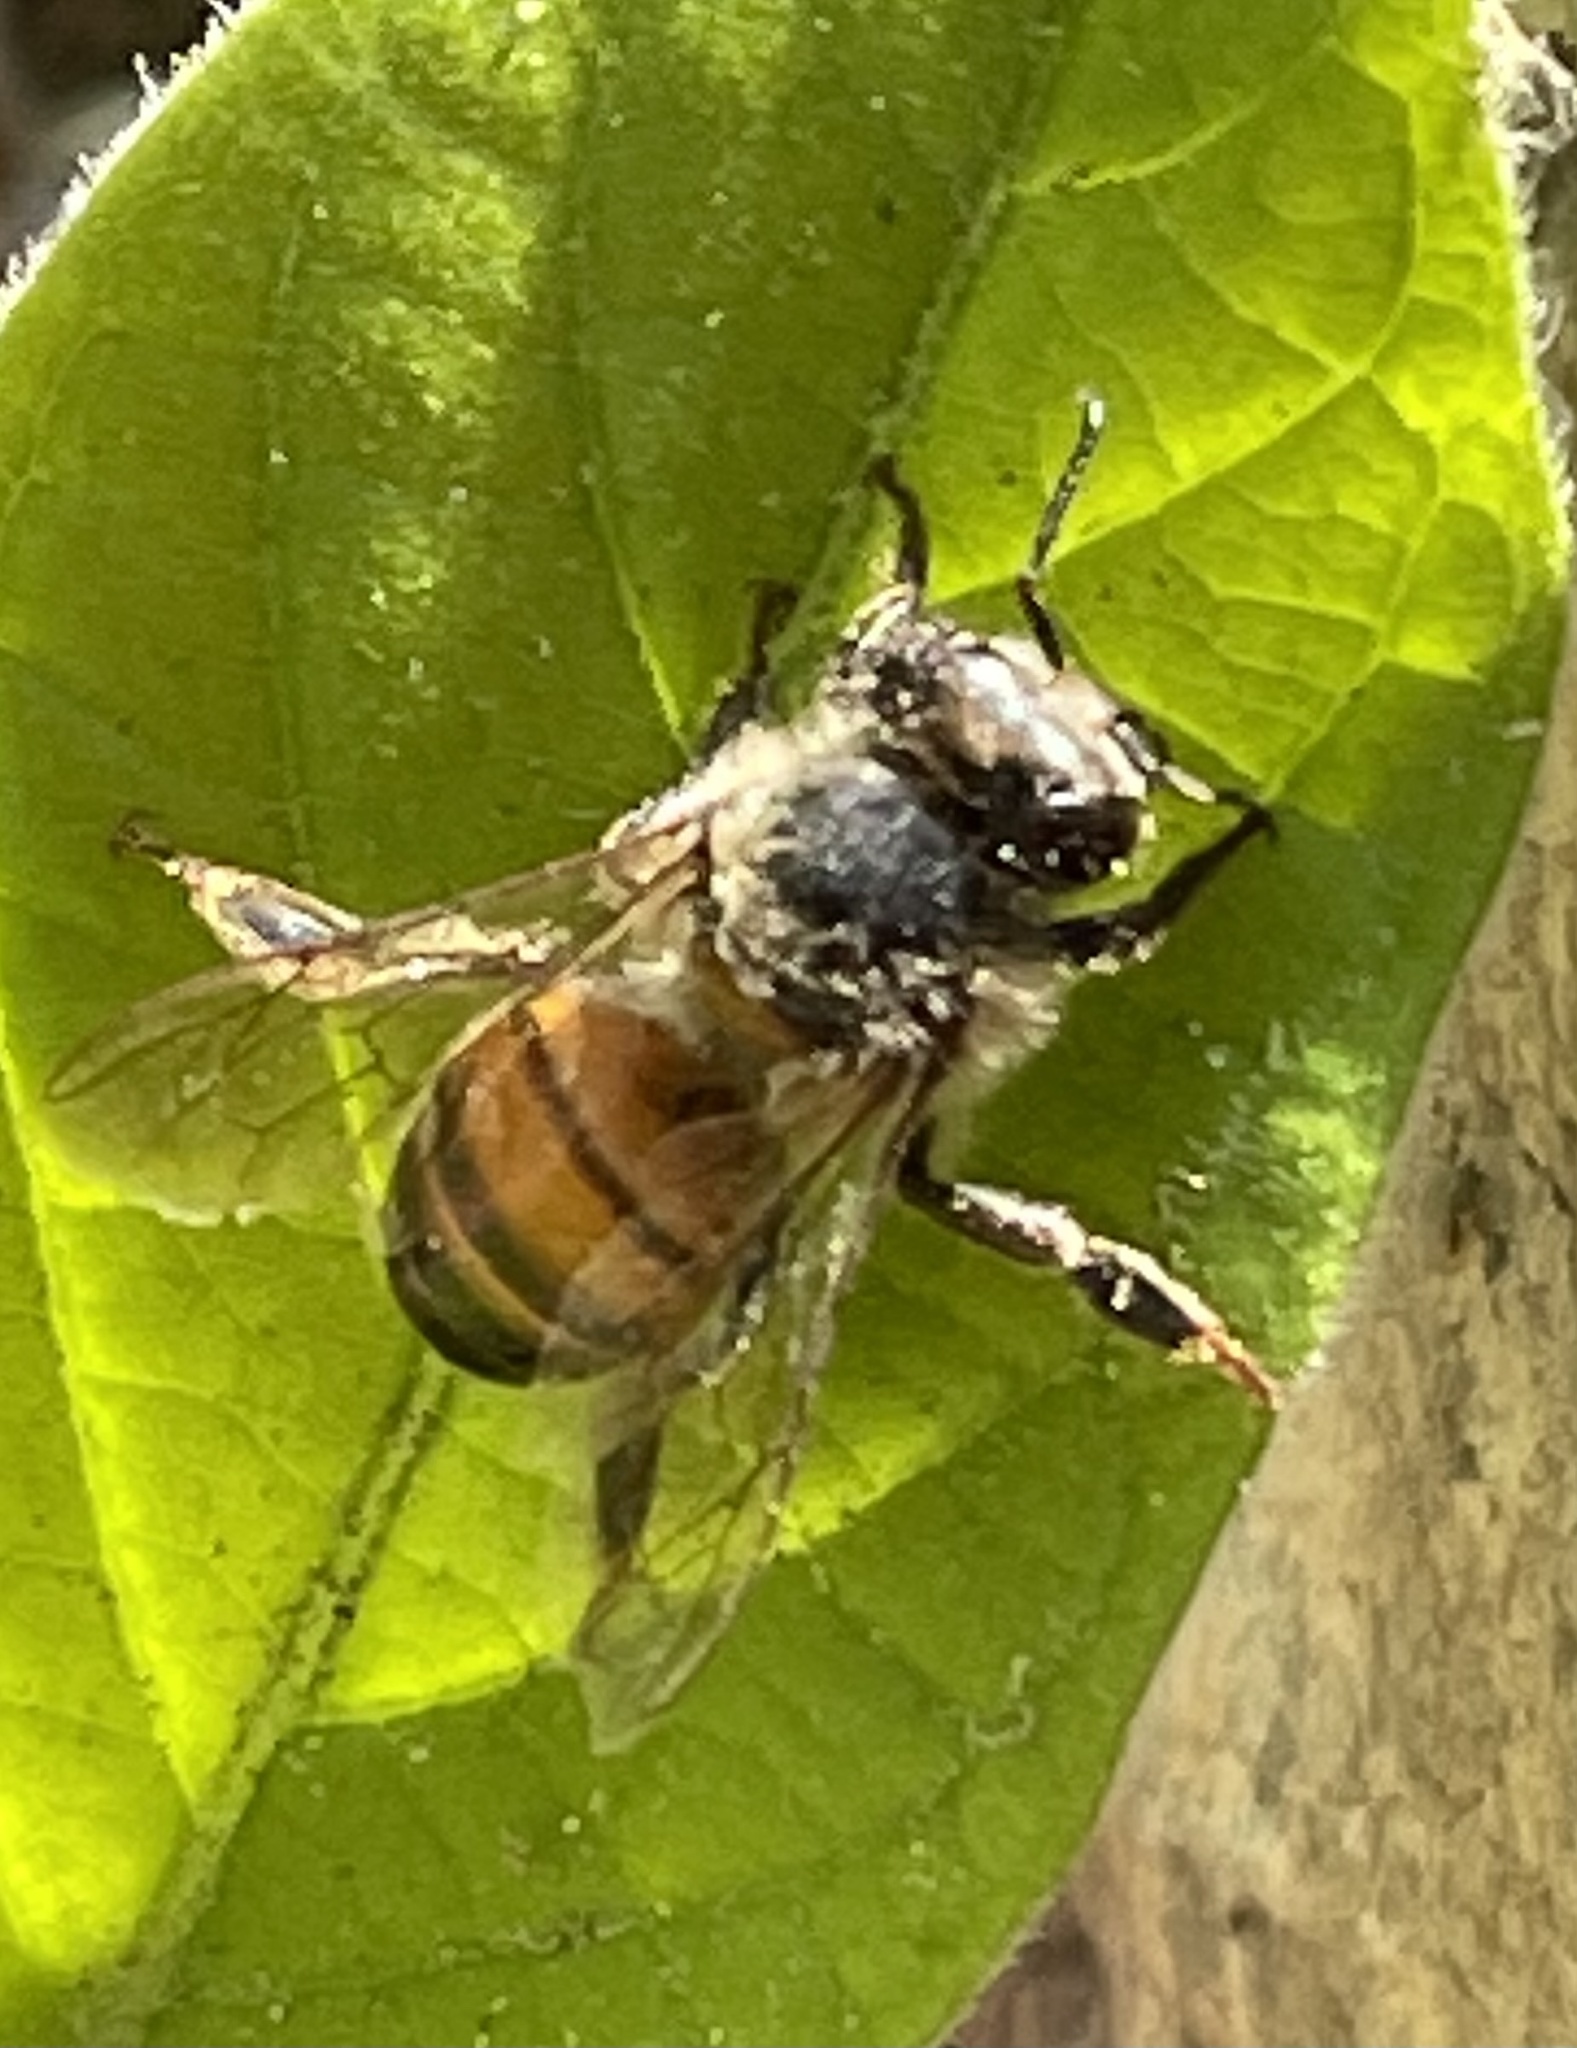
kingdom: Animalia
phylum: Arthropoda
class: Insecta
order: Hymenoptera
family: Apidae
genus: Apis
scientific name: Apis mellifera
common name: Honey bee
